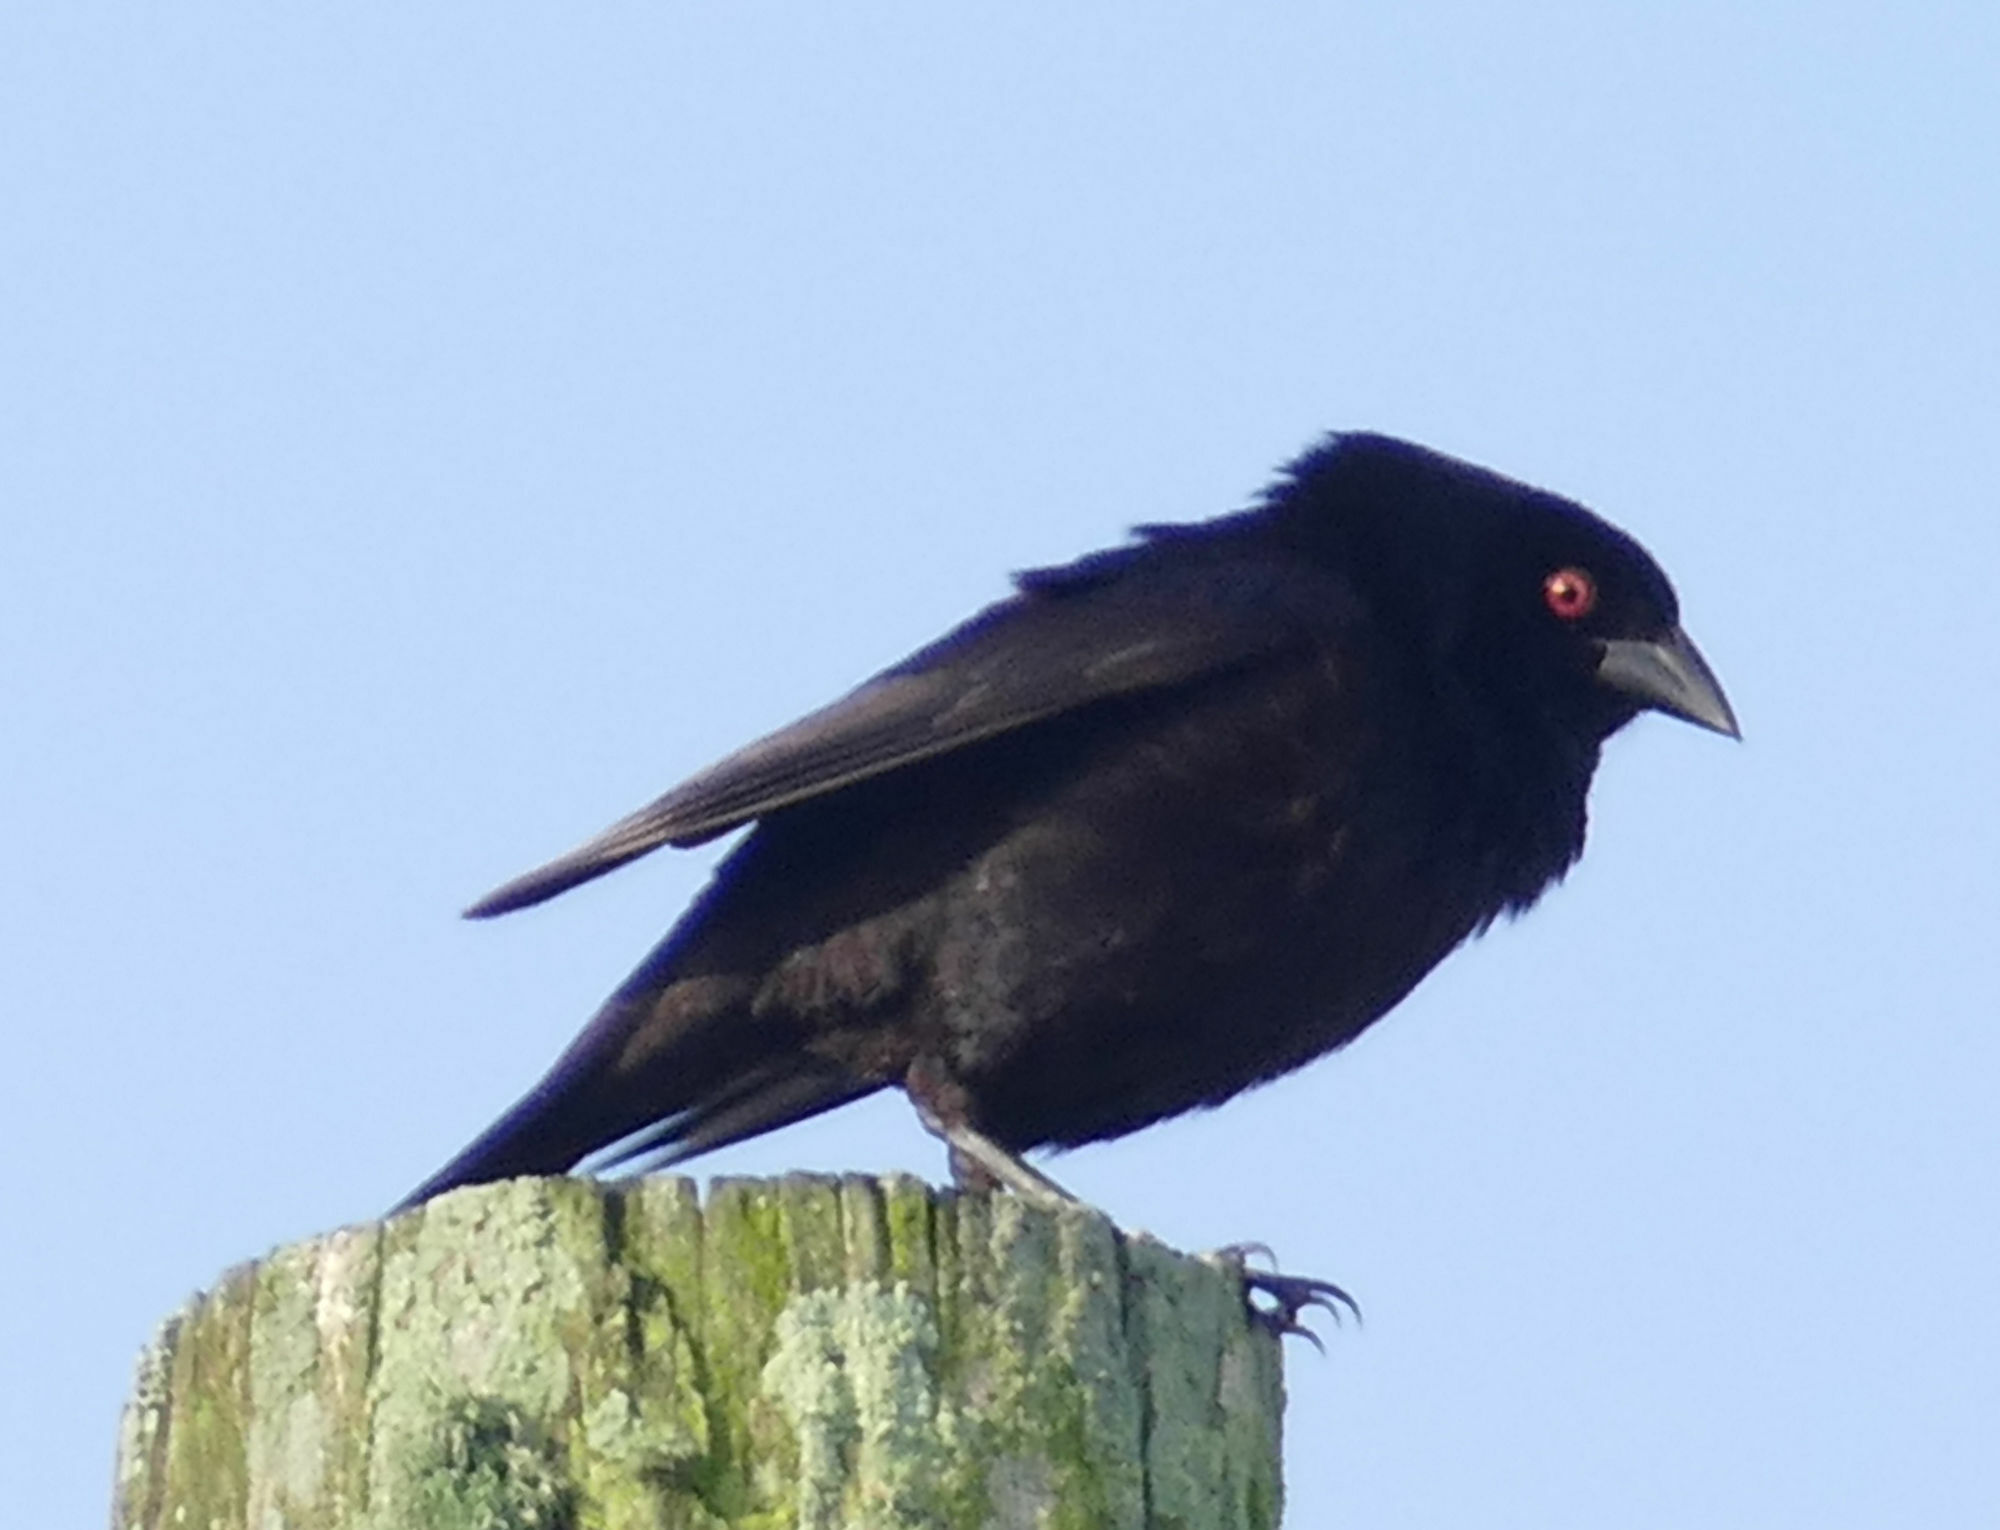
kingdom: Animalia
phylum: Chordata
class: Aves
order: Passeriformes
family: Icteridae
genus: Molothrus
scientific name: Molothrus aeneus
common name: Bronzed cowbird
